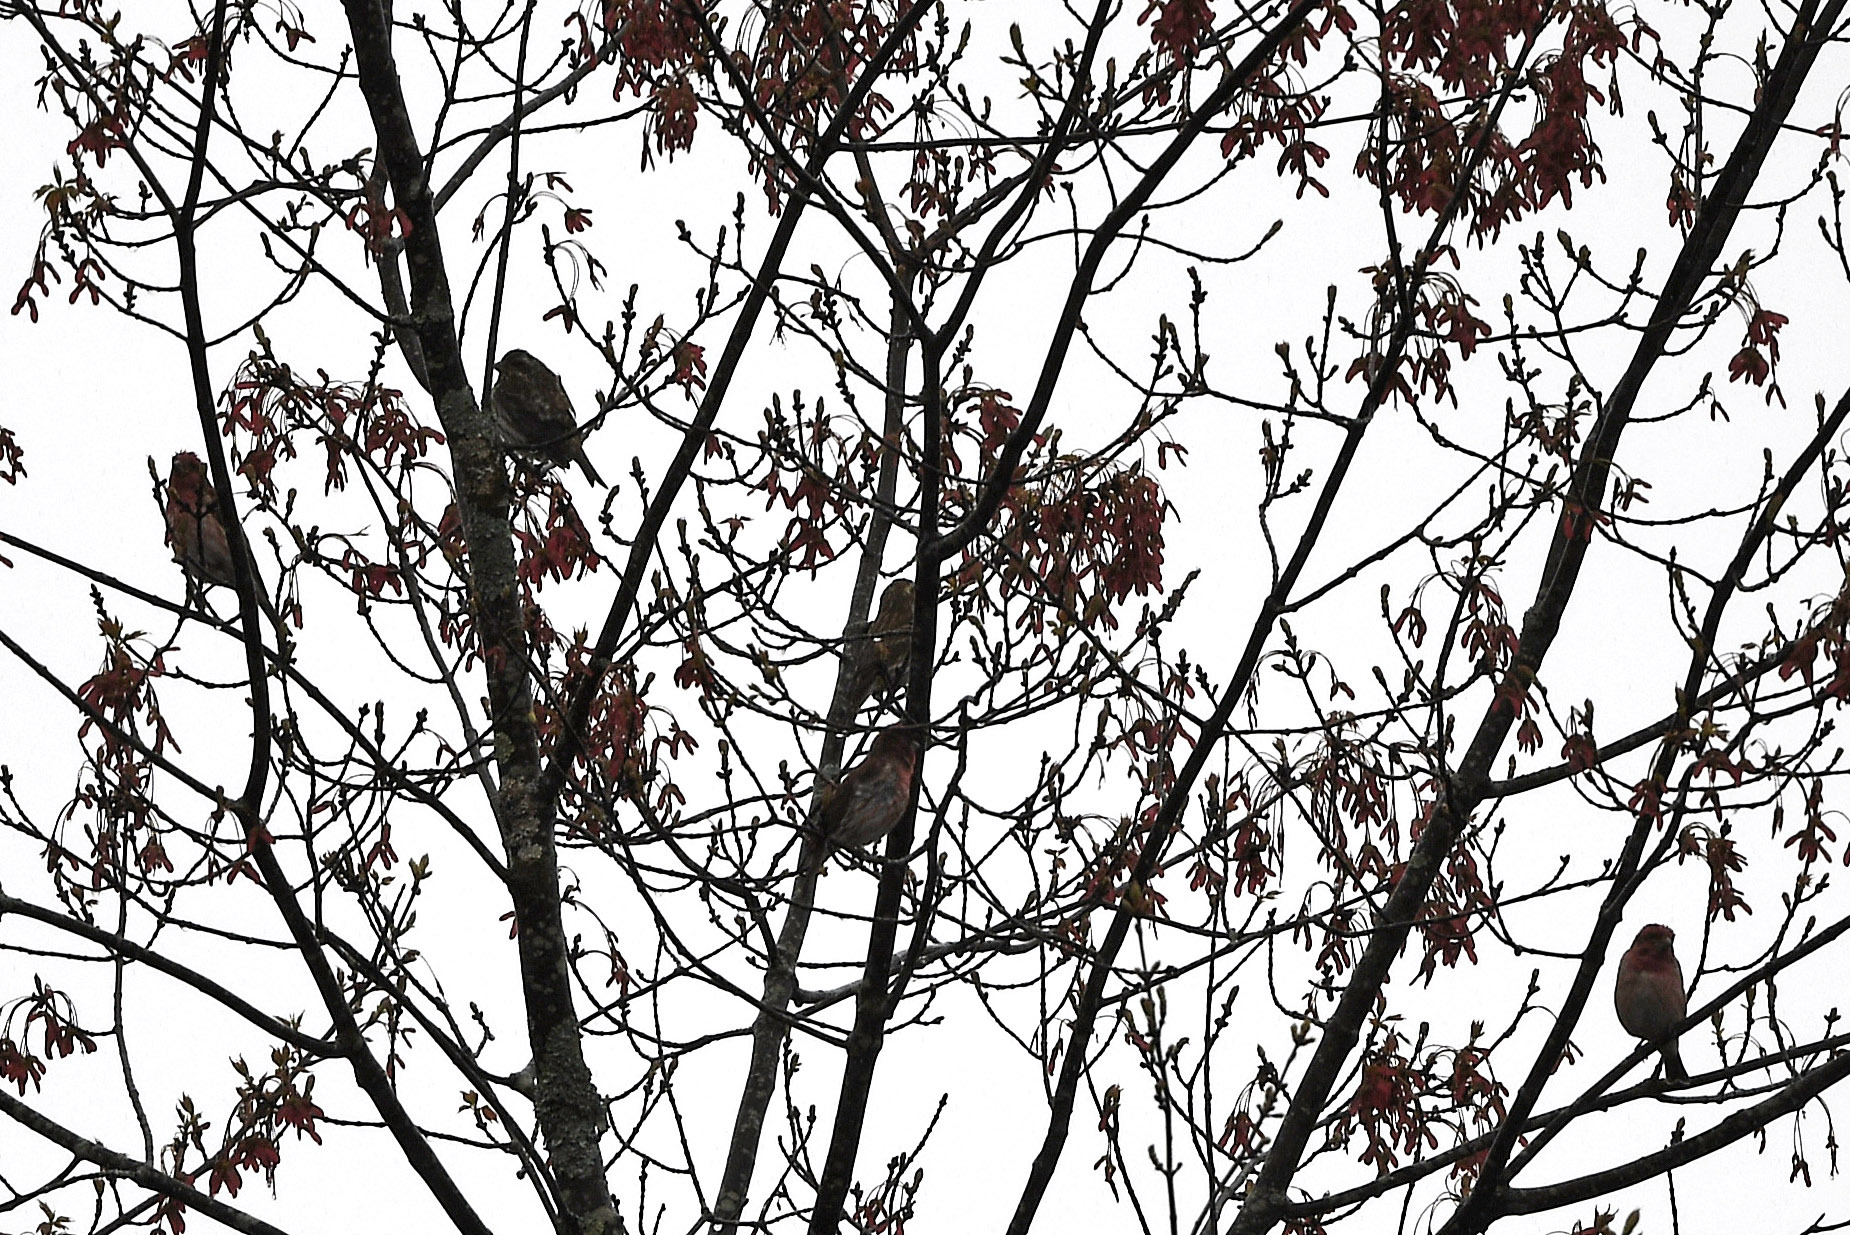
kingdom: Animalia
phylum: Chordata
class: Aves
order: Passeriformes
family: Fringillidae
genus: Haemorhous
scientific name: Haemorhous purpureus
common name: Purple finch
